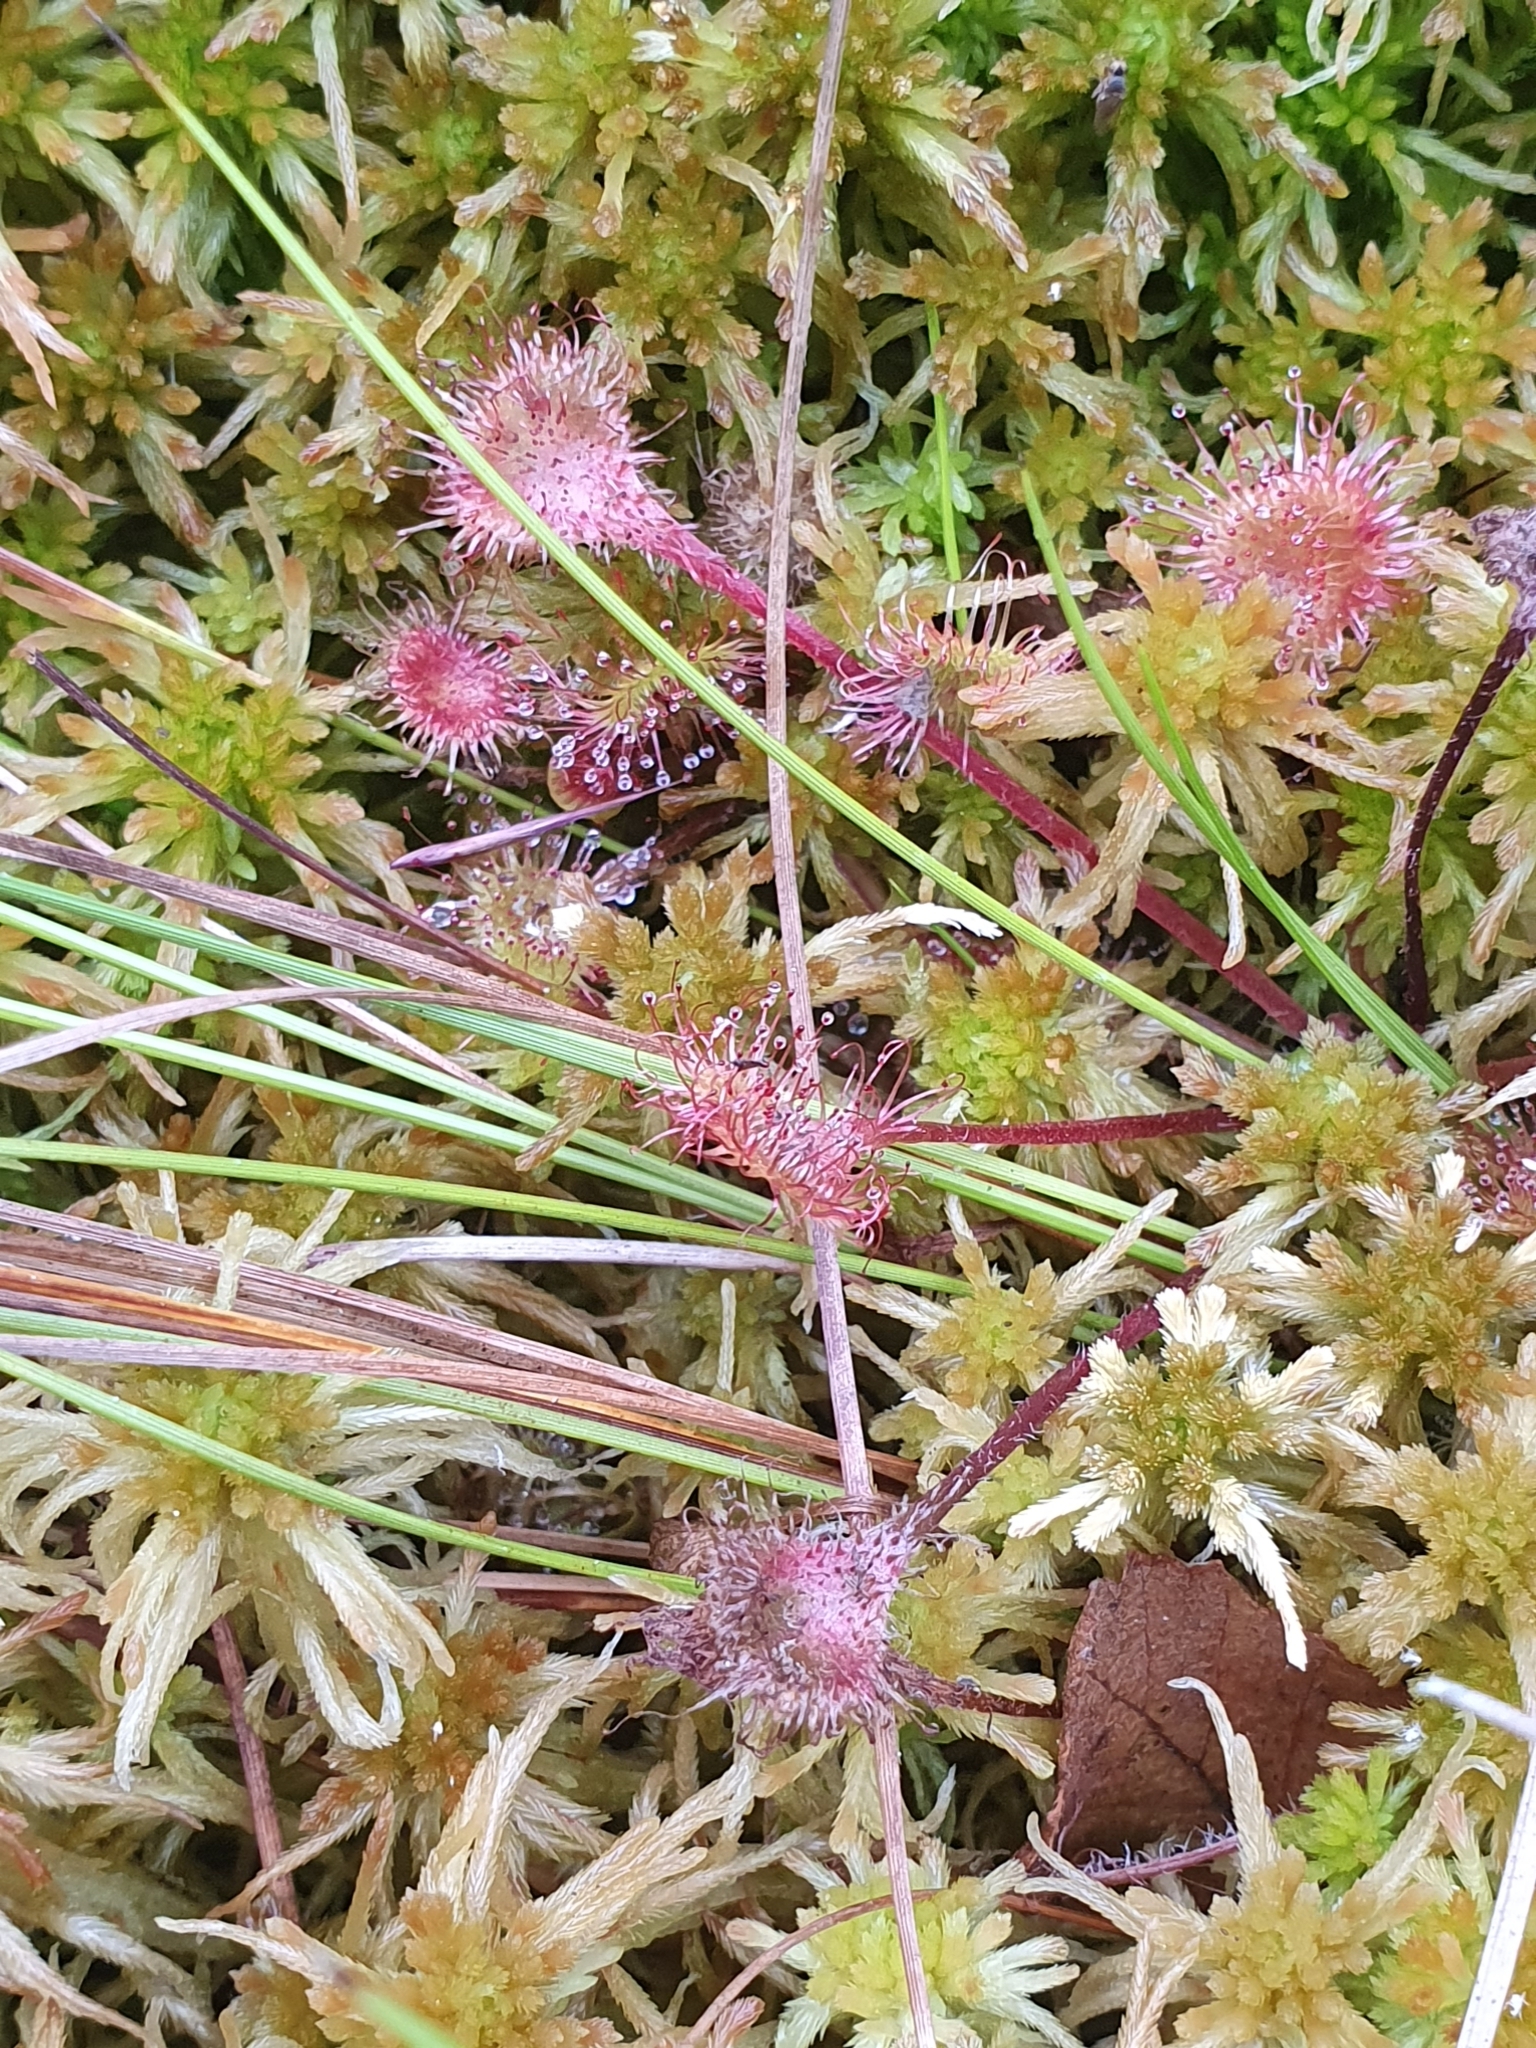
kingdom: Plantae
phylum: Tracheophyta
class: Magnoliopsida
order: Caryophyllales
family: Droseraceae
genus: Drosera
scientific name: Drosera rotundifolia
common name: Round-leaved sundew
